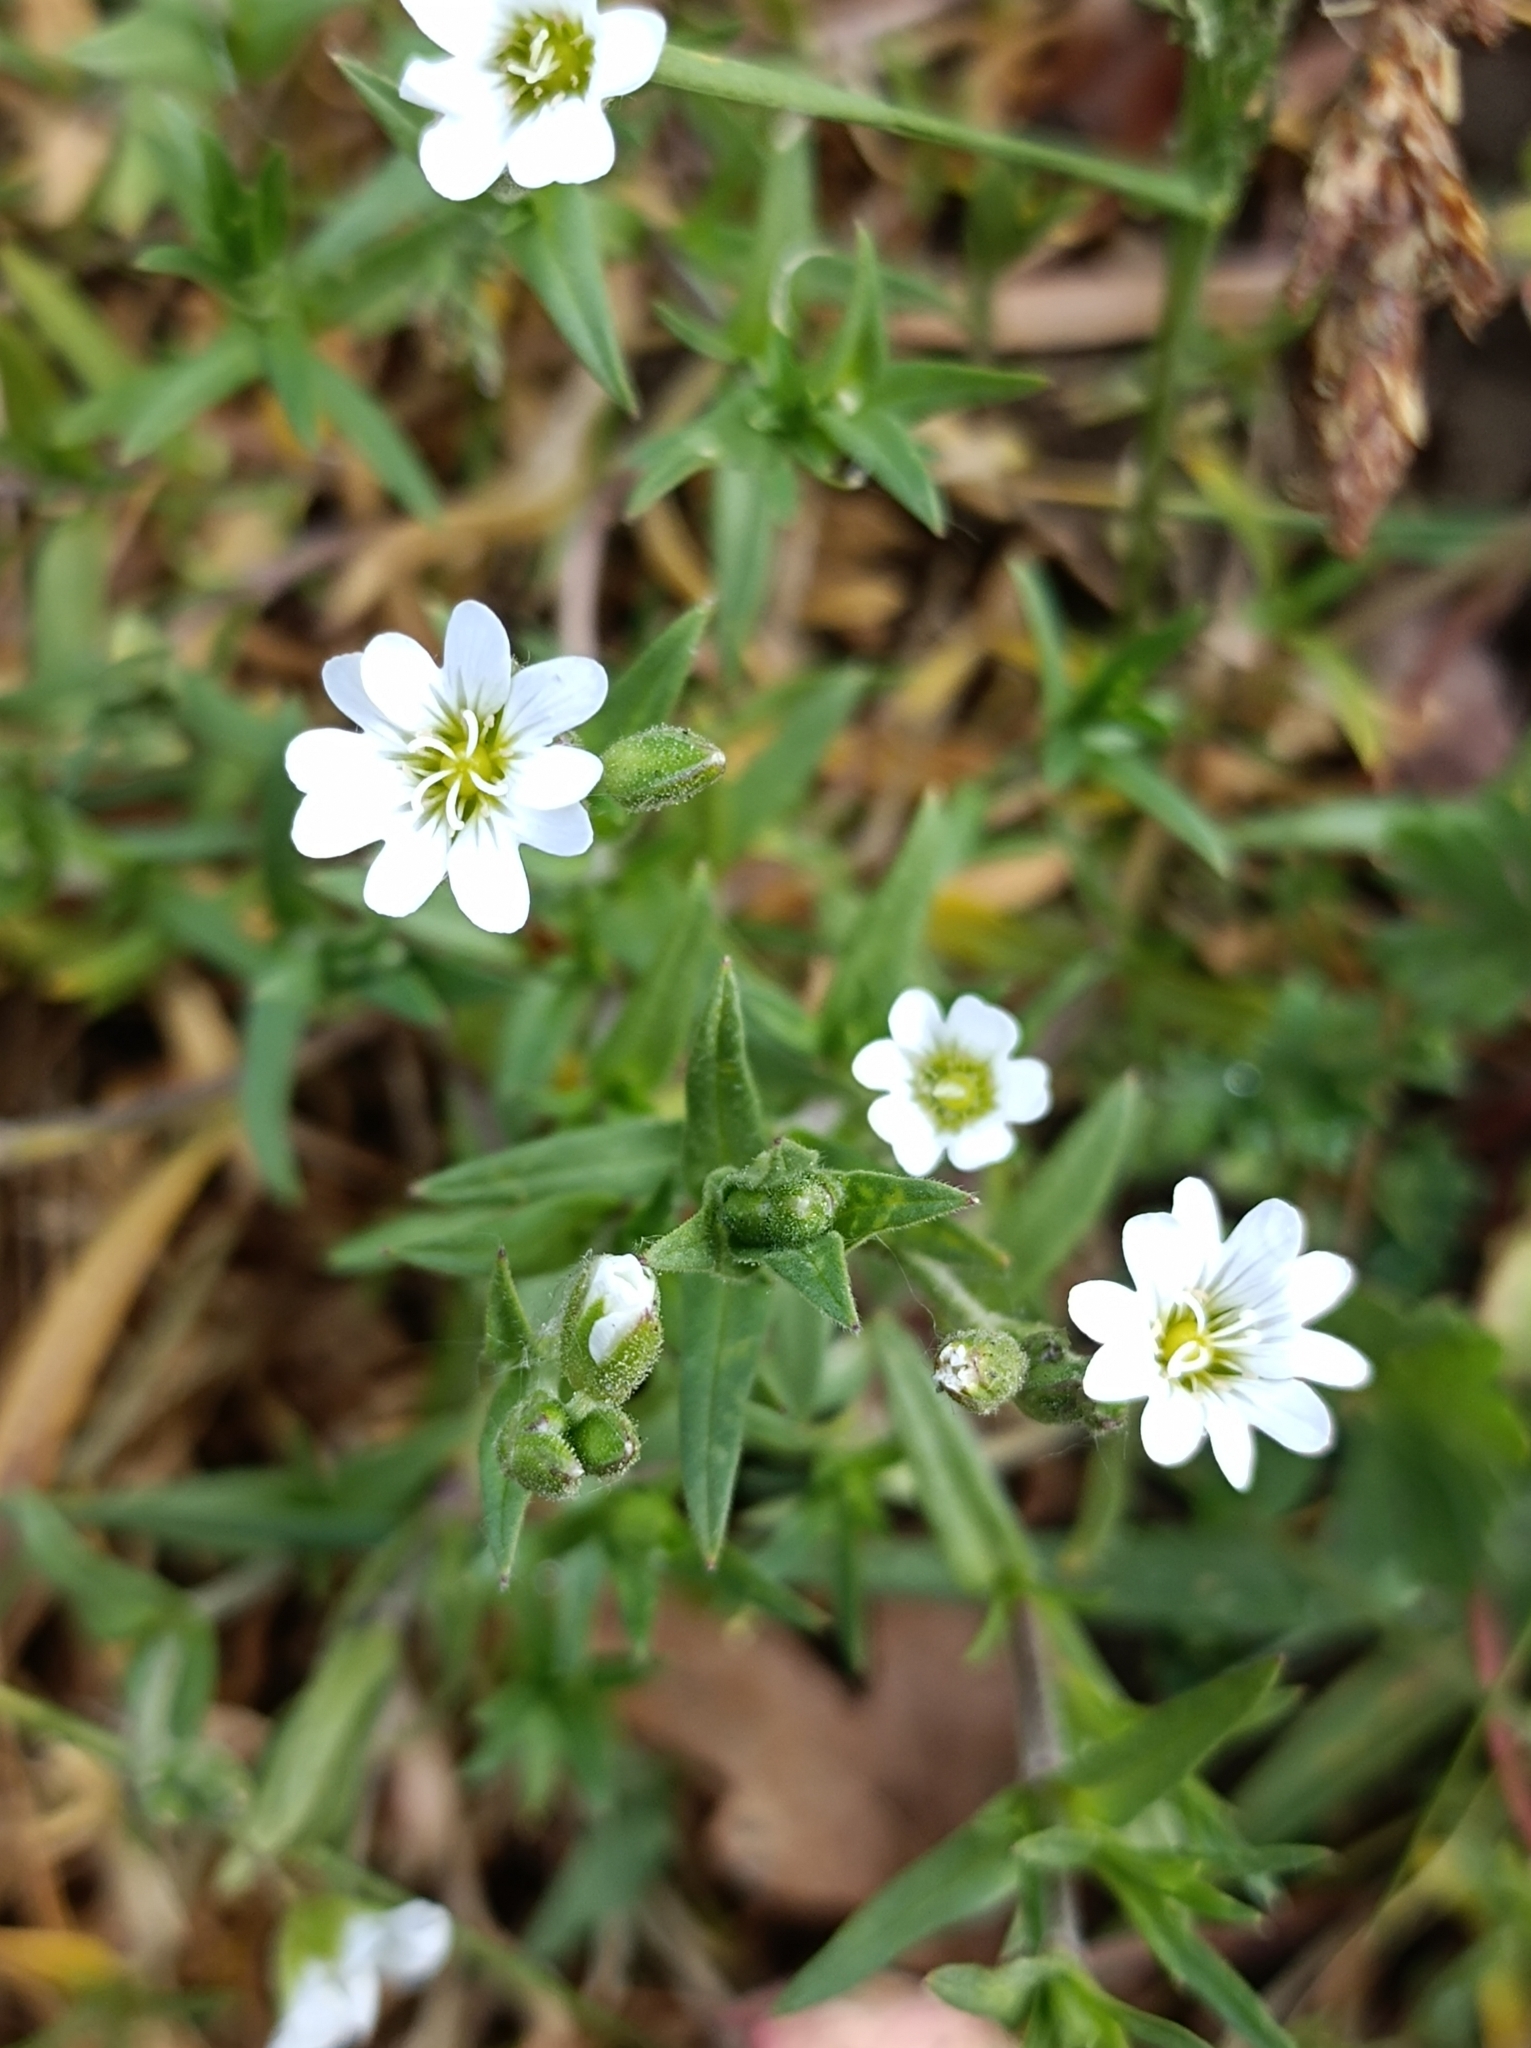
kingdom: Plantae
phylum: Tracheophyta
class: Magnoliopsida
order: Caryophyllales
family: Caryophyllaceae
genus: Cerastium
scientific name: Cerastium arvense
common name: Field mouse-ear
